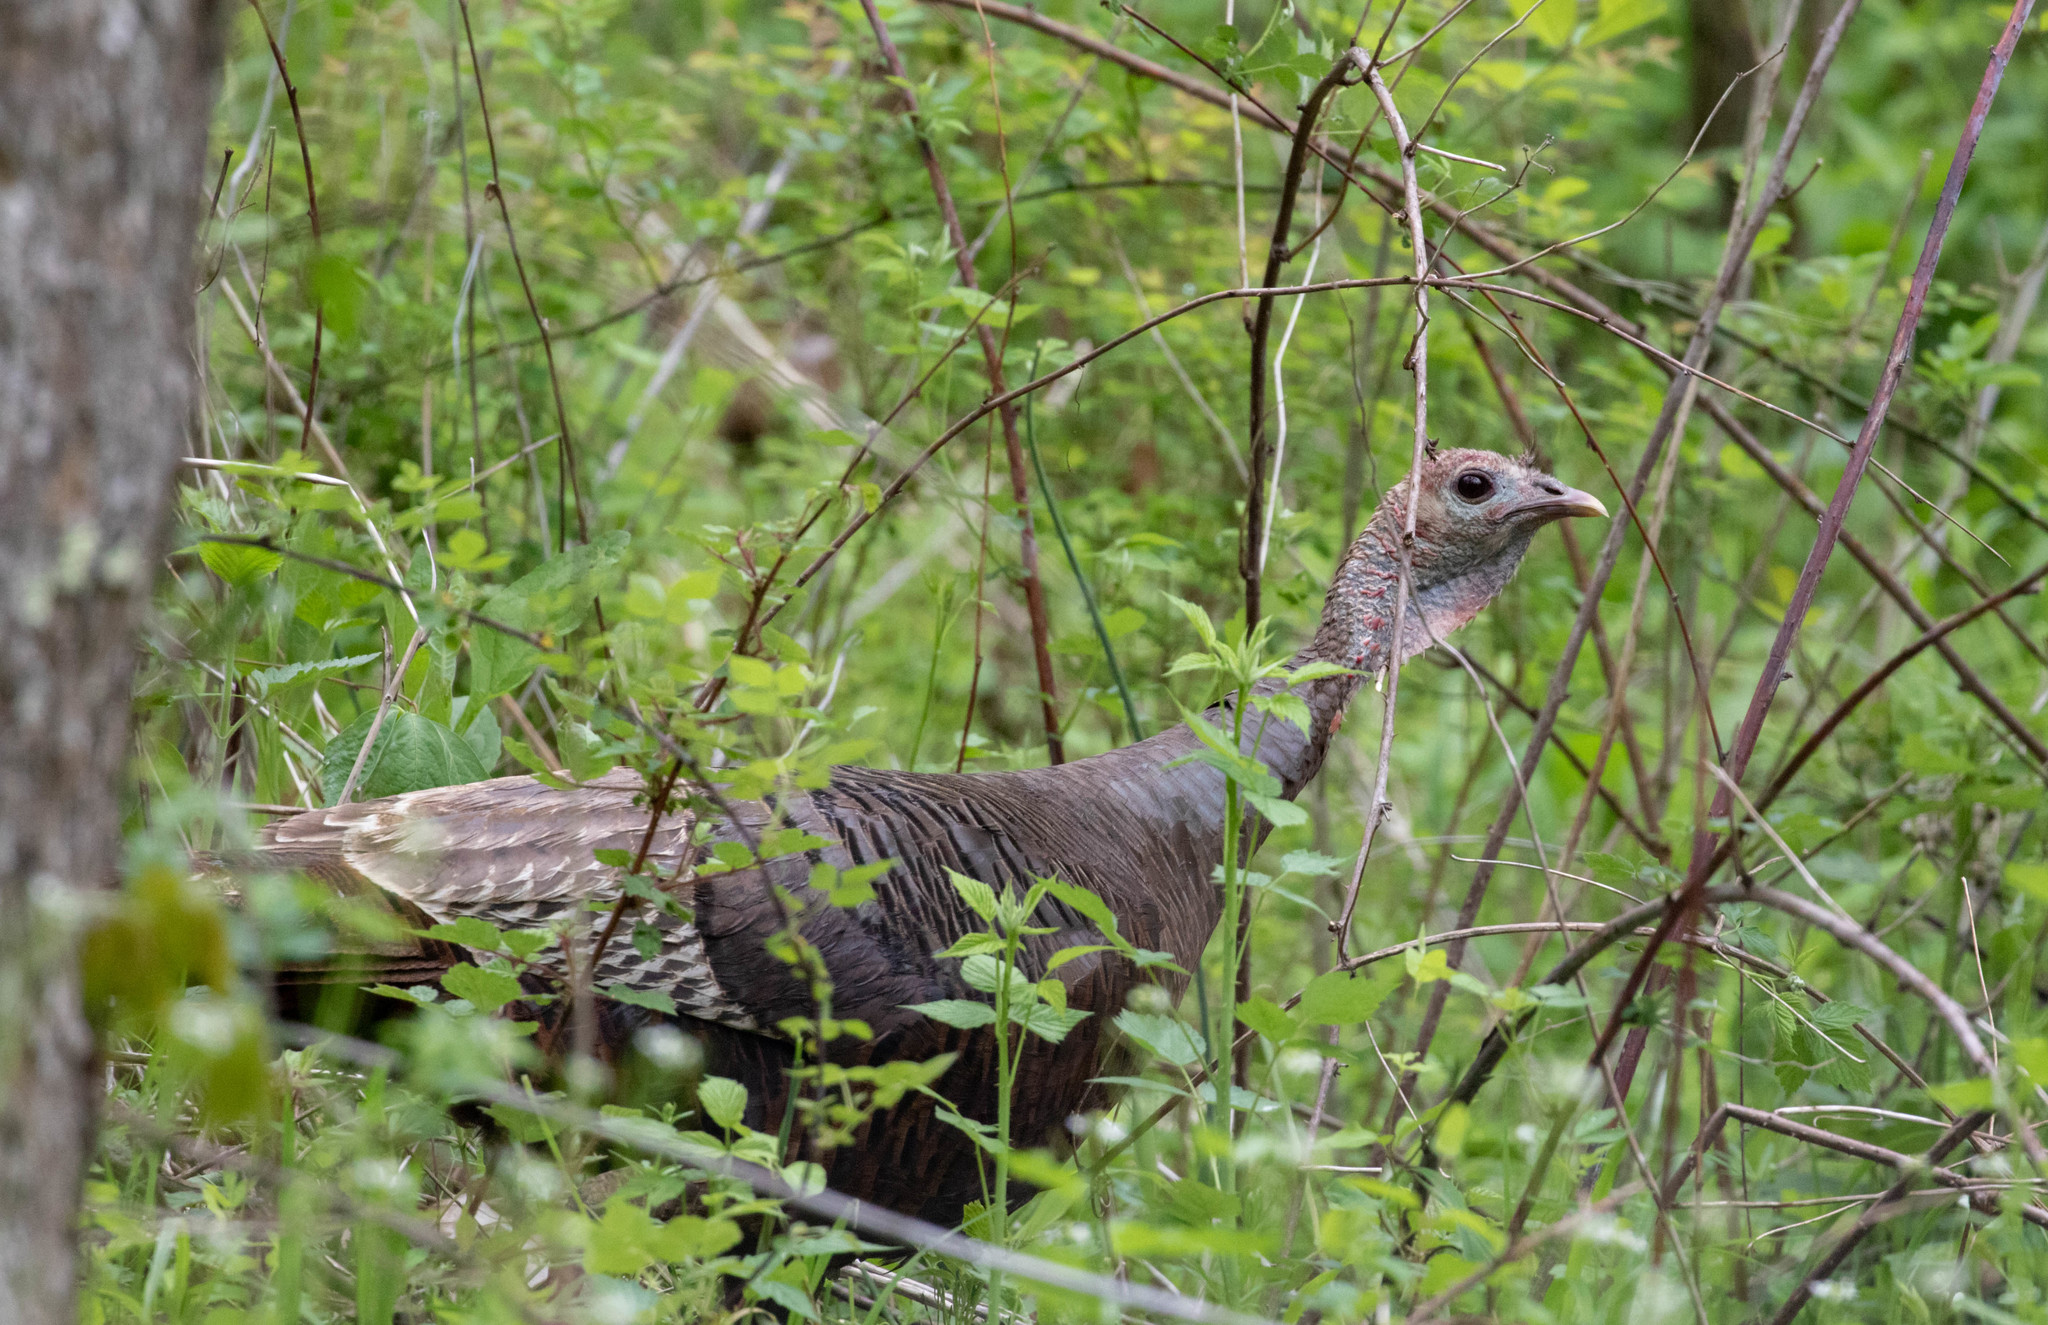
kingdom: Animalia
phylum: Chordata
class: Aves
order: Galliformes
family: Phasianidae
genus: Meleagris
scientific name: Meleagris gallopavo
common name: Wild turkey
